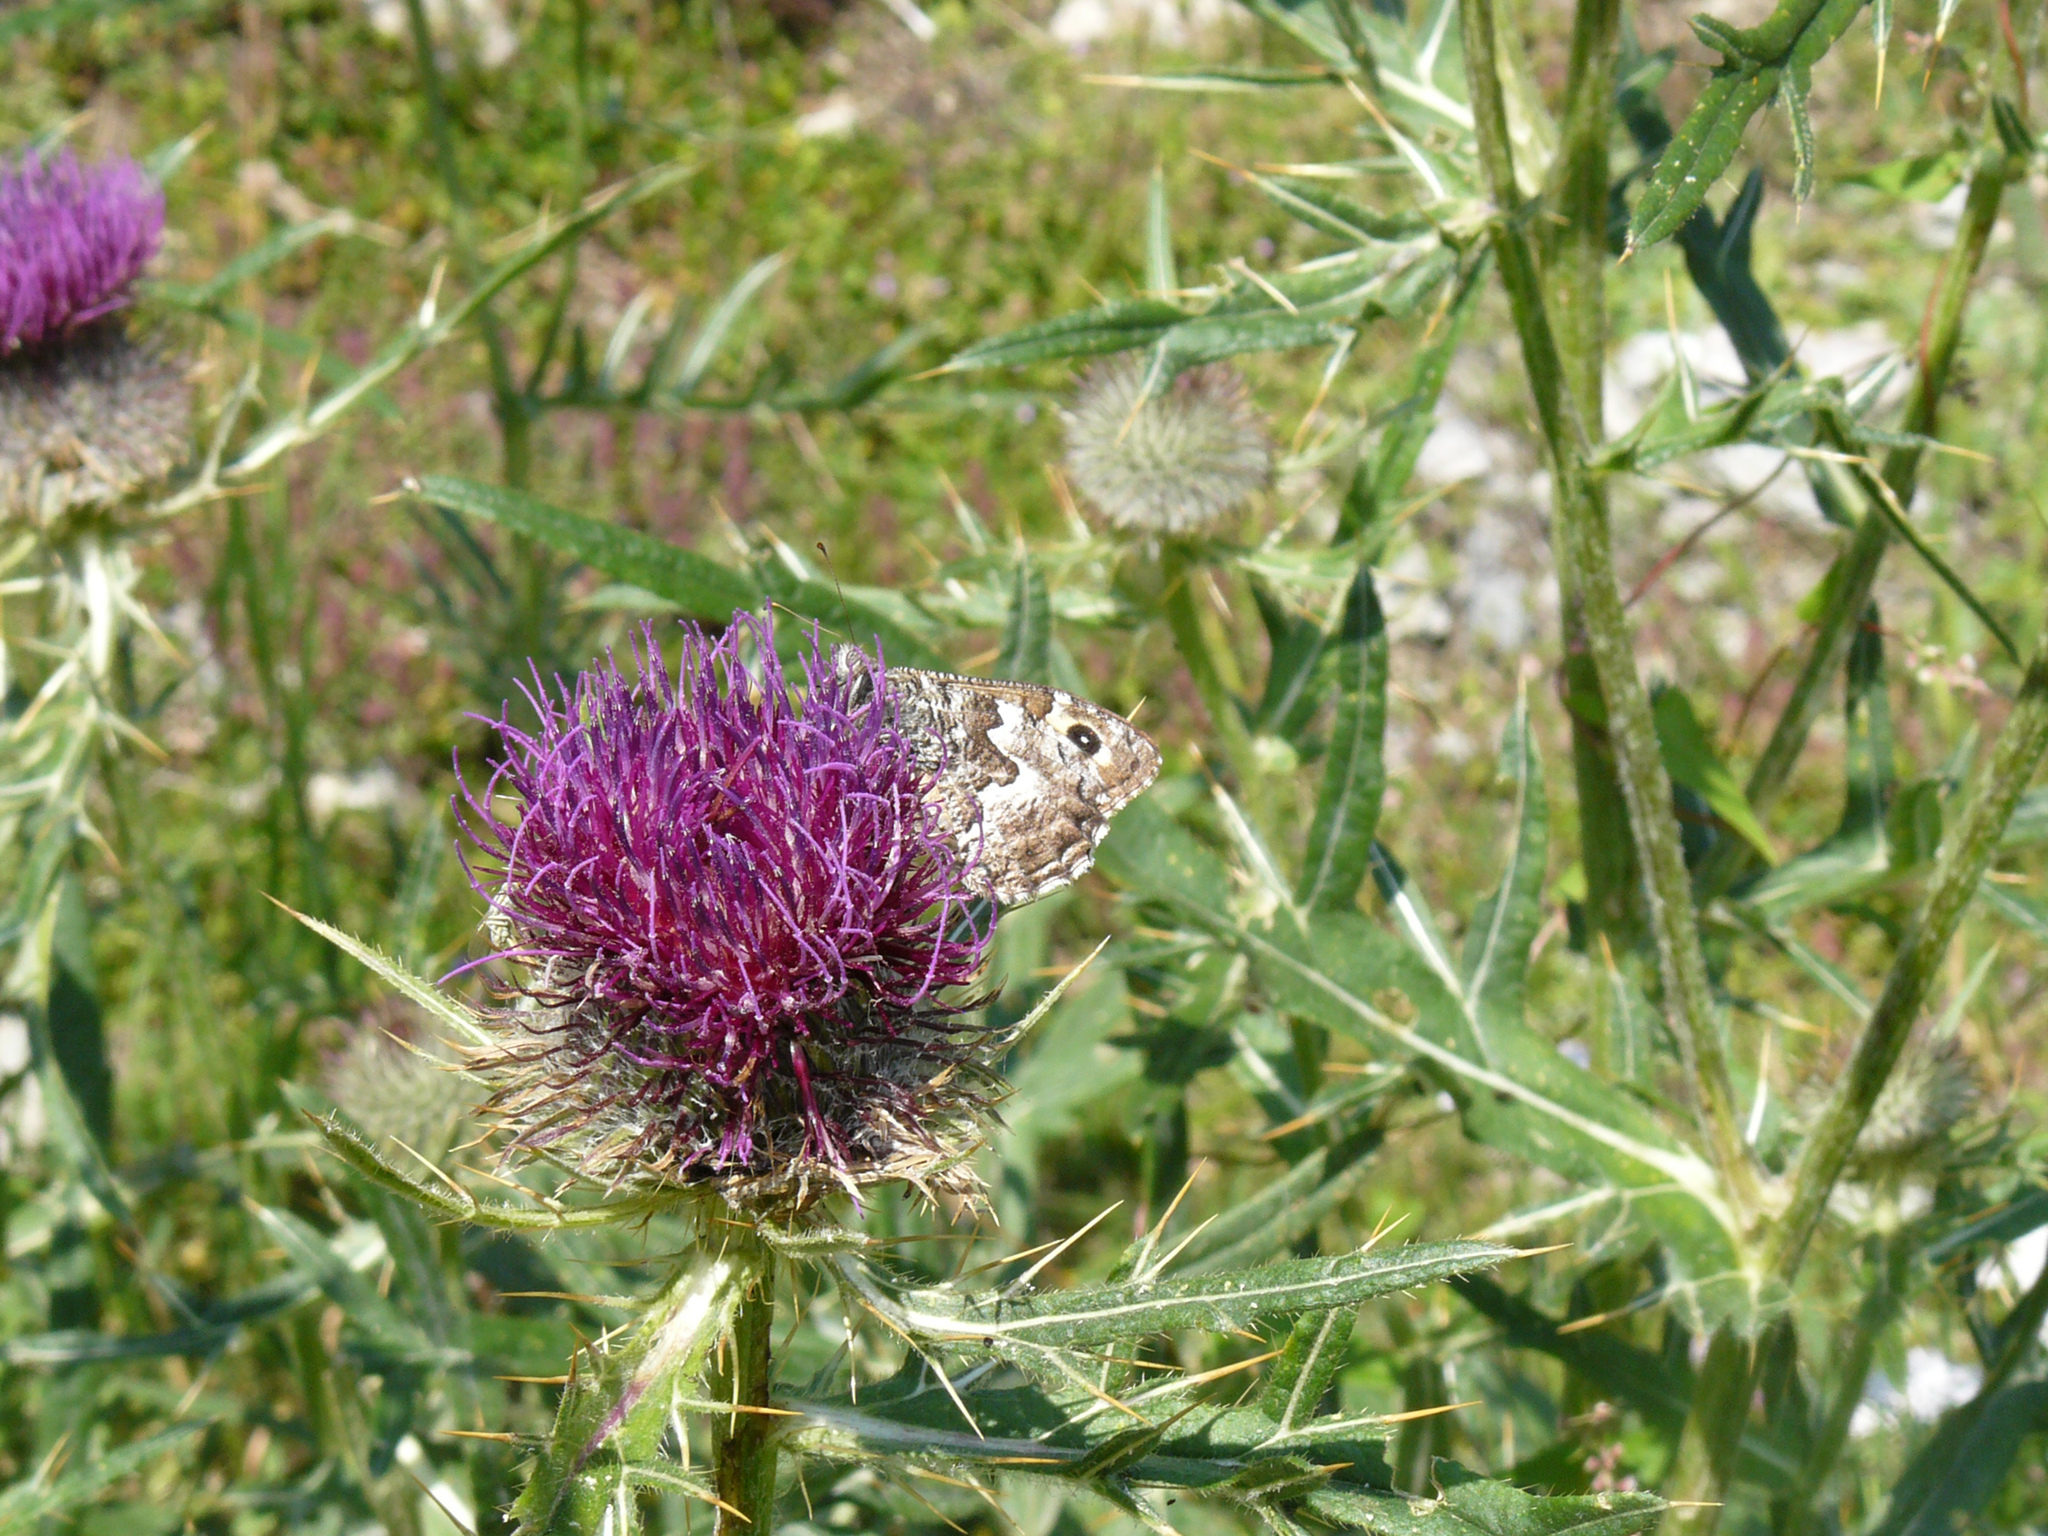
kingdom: Animalia
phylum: Arthropoda
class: Insecta
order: Lepidoptera
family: Nymphalidae
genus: Hipparchia
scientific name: Hipparchia semele
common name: Grayling
